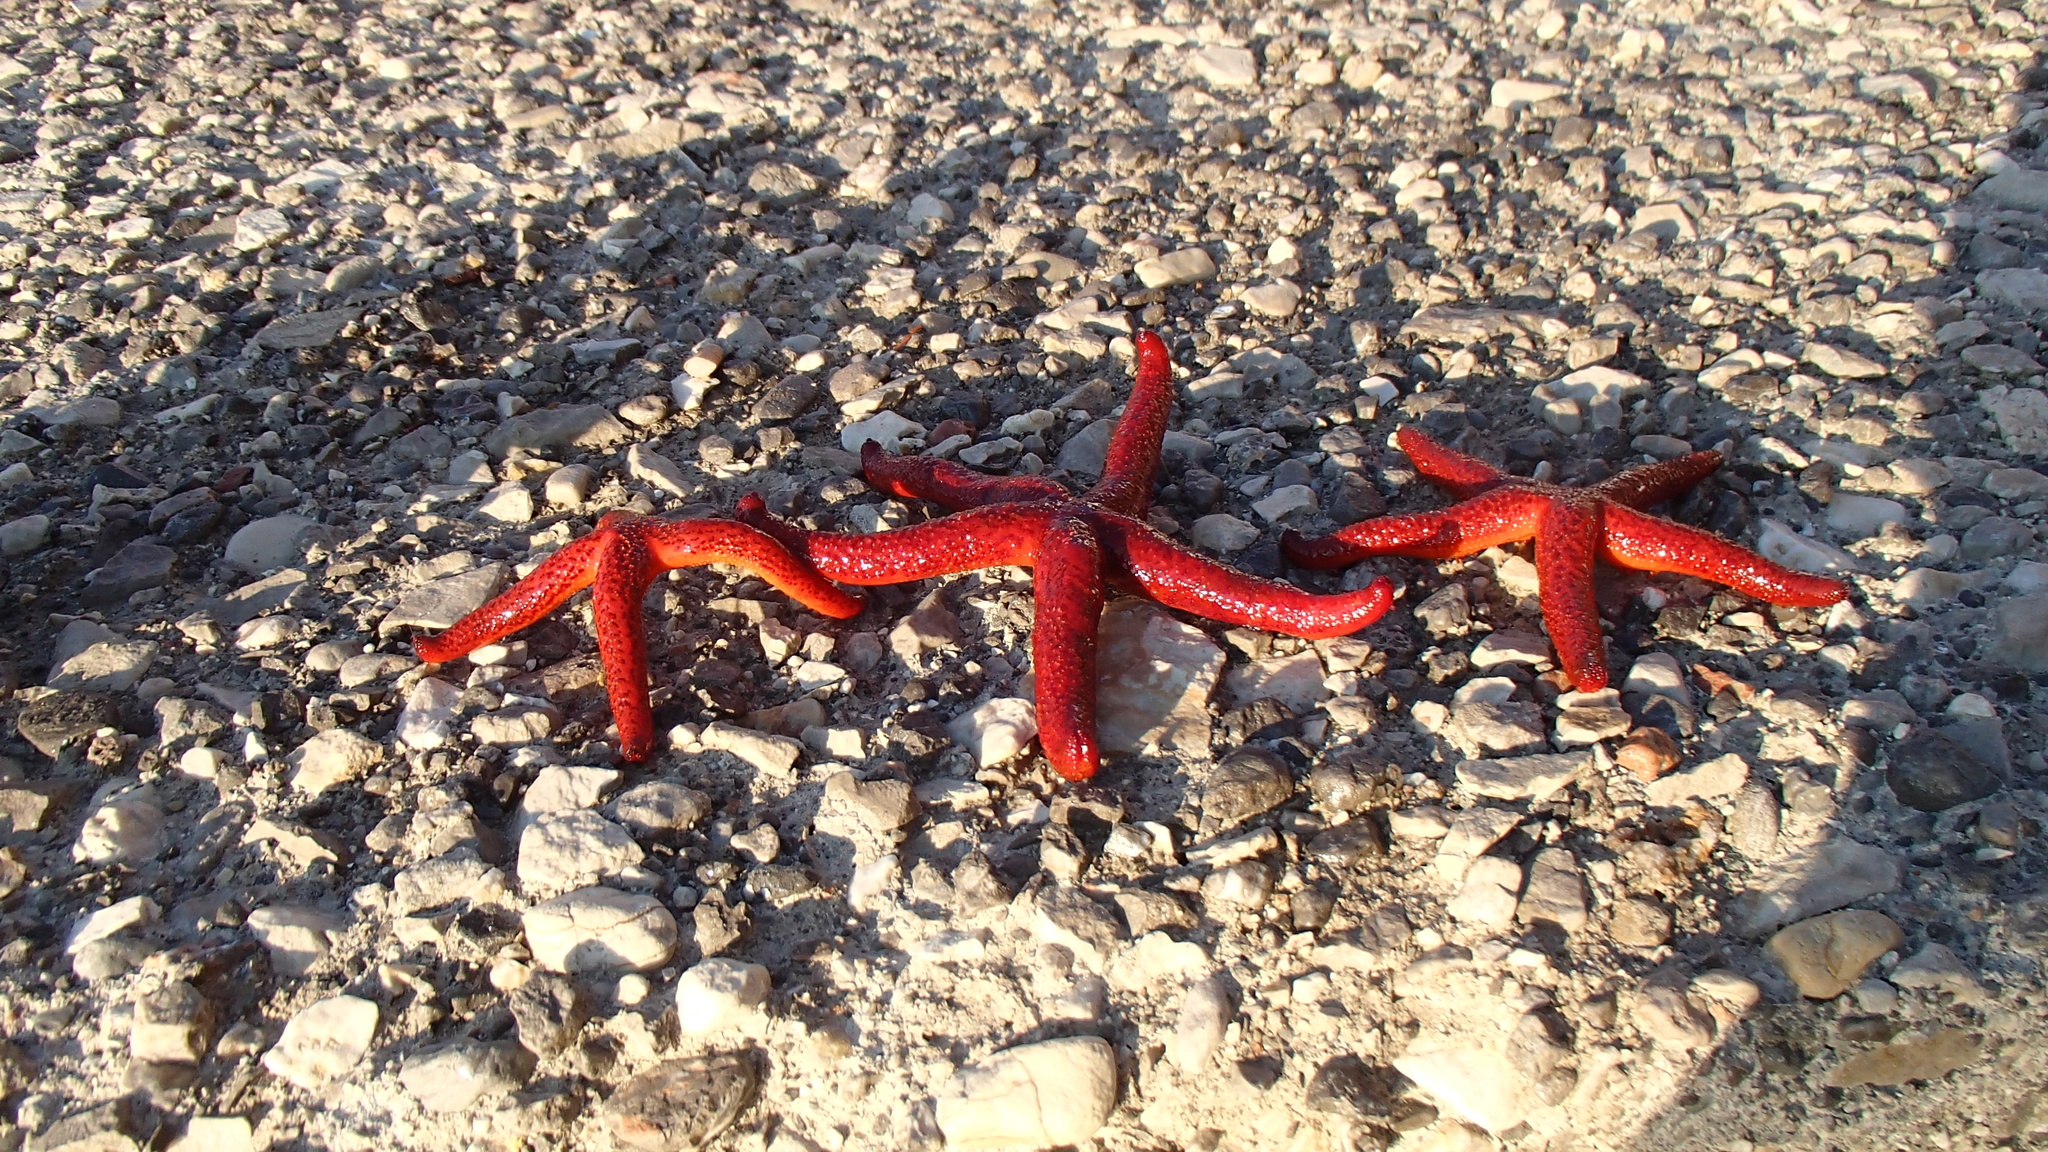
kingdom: Animalia
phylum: Echinodermata
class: Asteroidea
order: Spinulosida
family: Echinasteridae
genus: Echinaster
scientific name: Echinaster sepositus
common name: Red starfish
